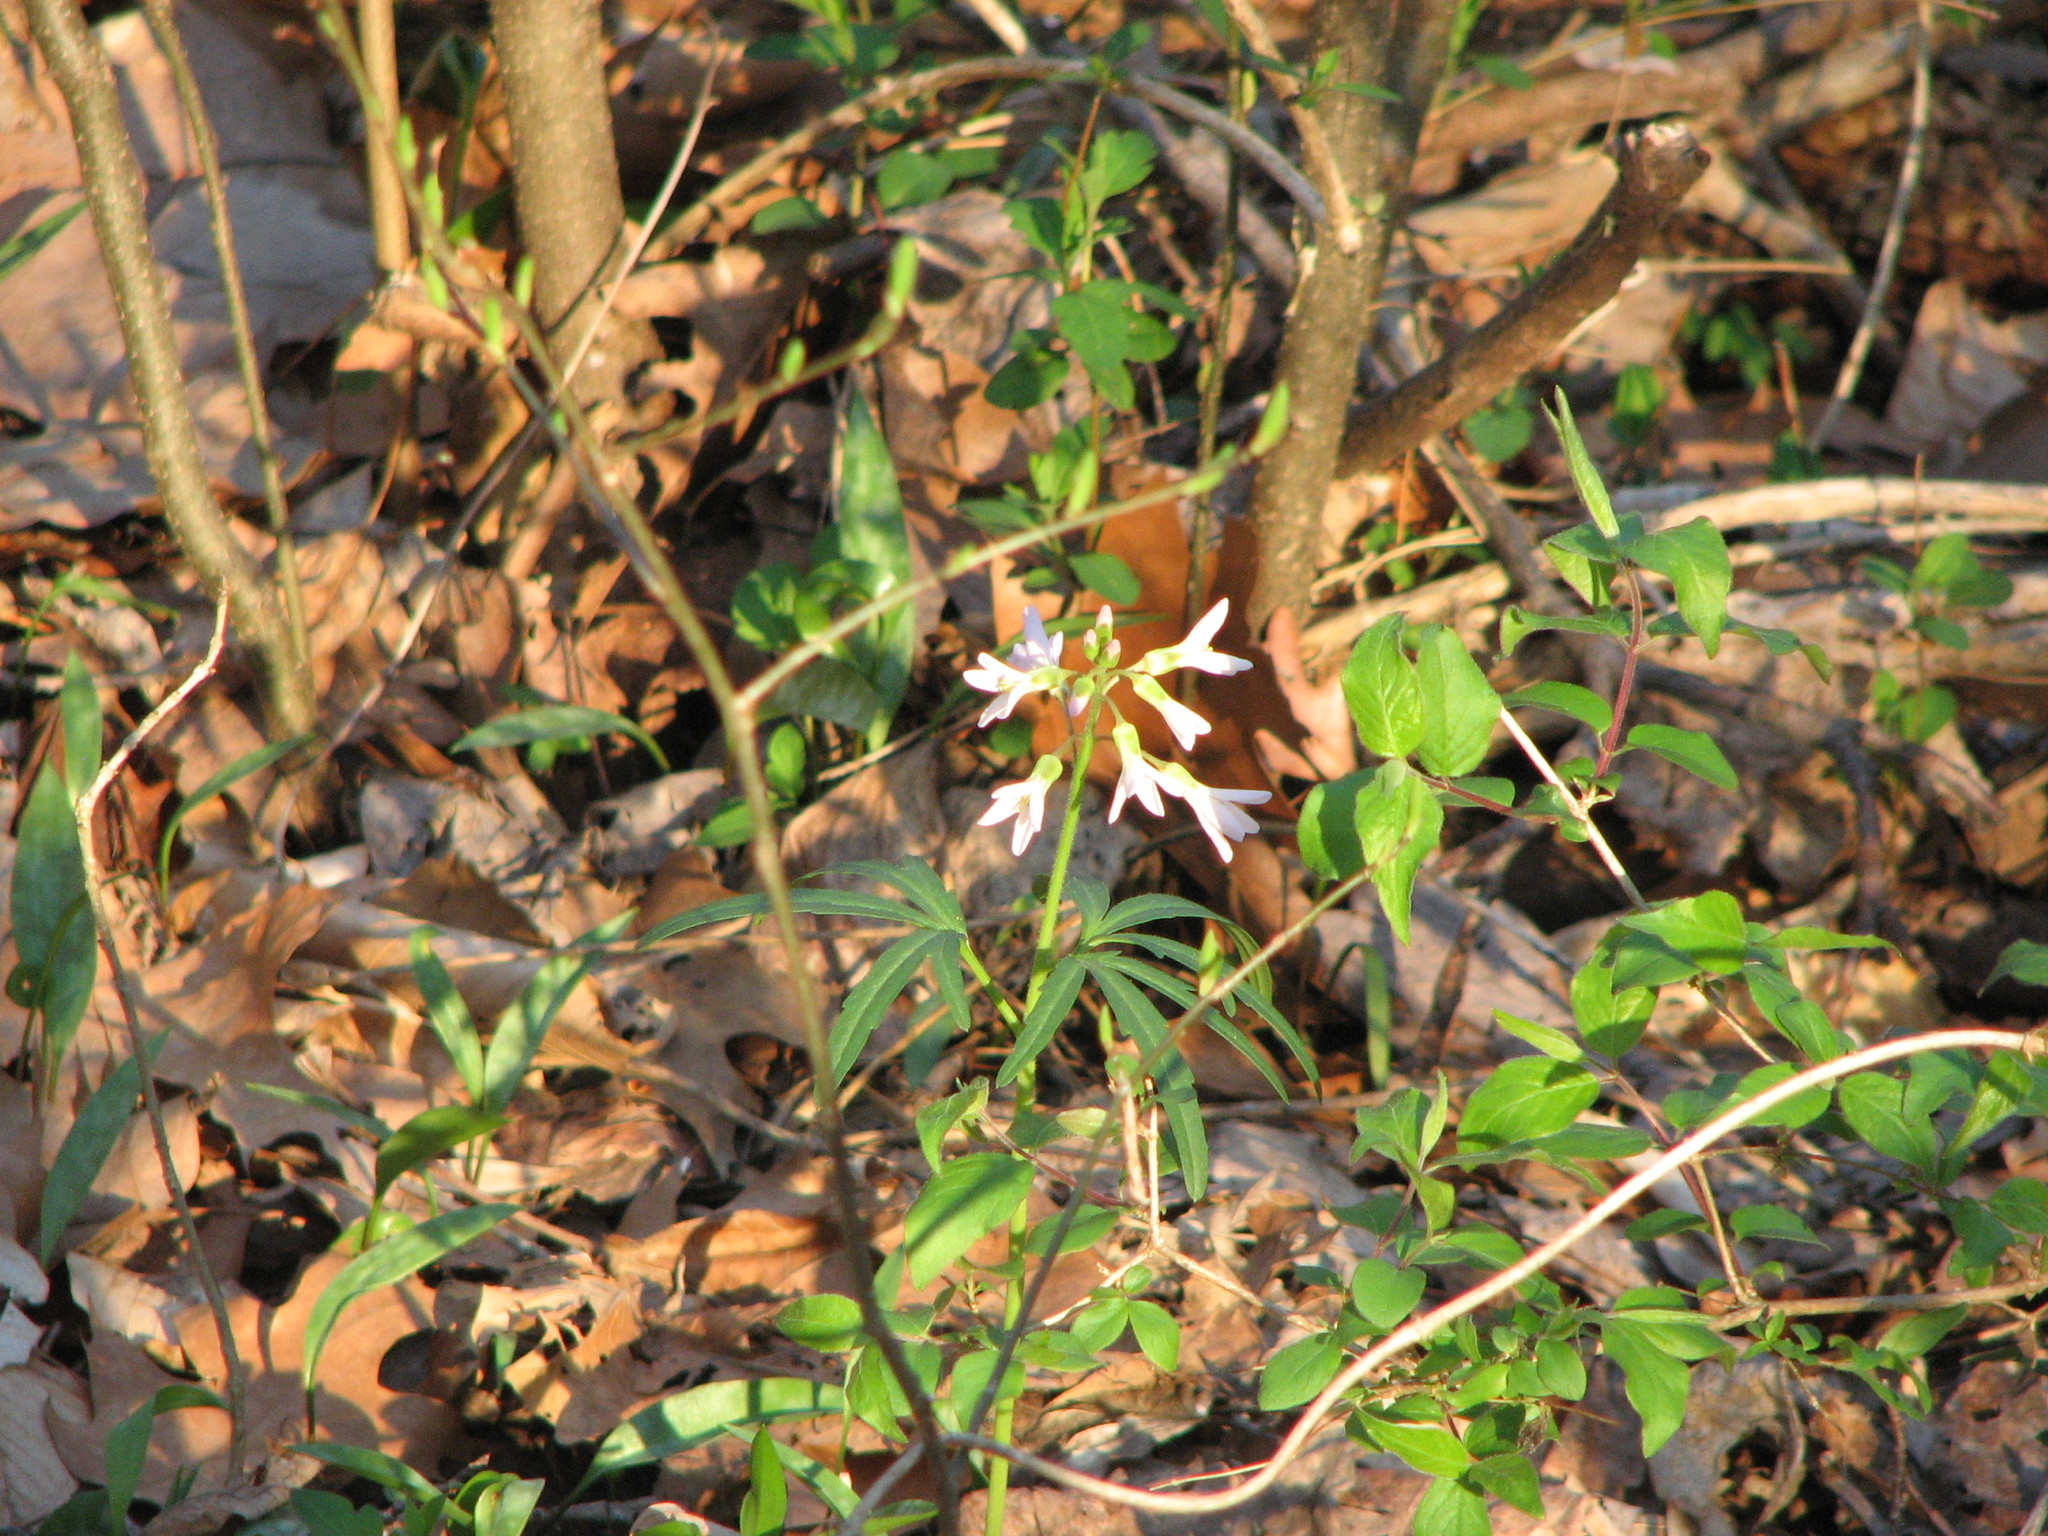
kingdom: Plantae
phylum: Tracheophyta
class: Magnoliopsida
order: Brassicales
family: Brassicaceae
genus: Cardamine
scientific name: Cardamine concatenata
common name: Cut-leaf toothcup
